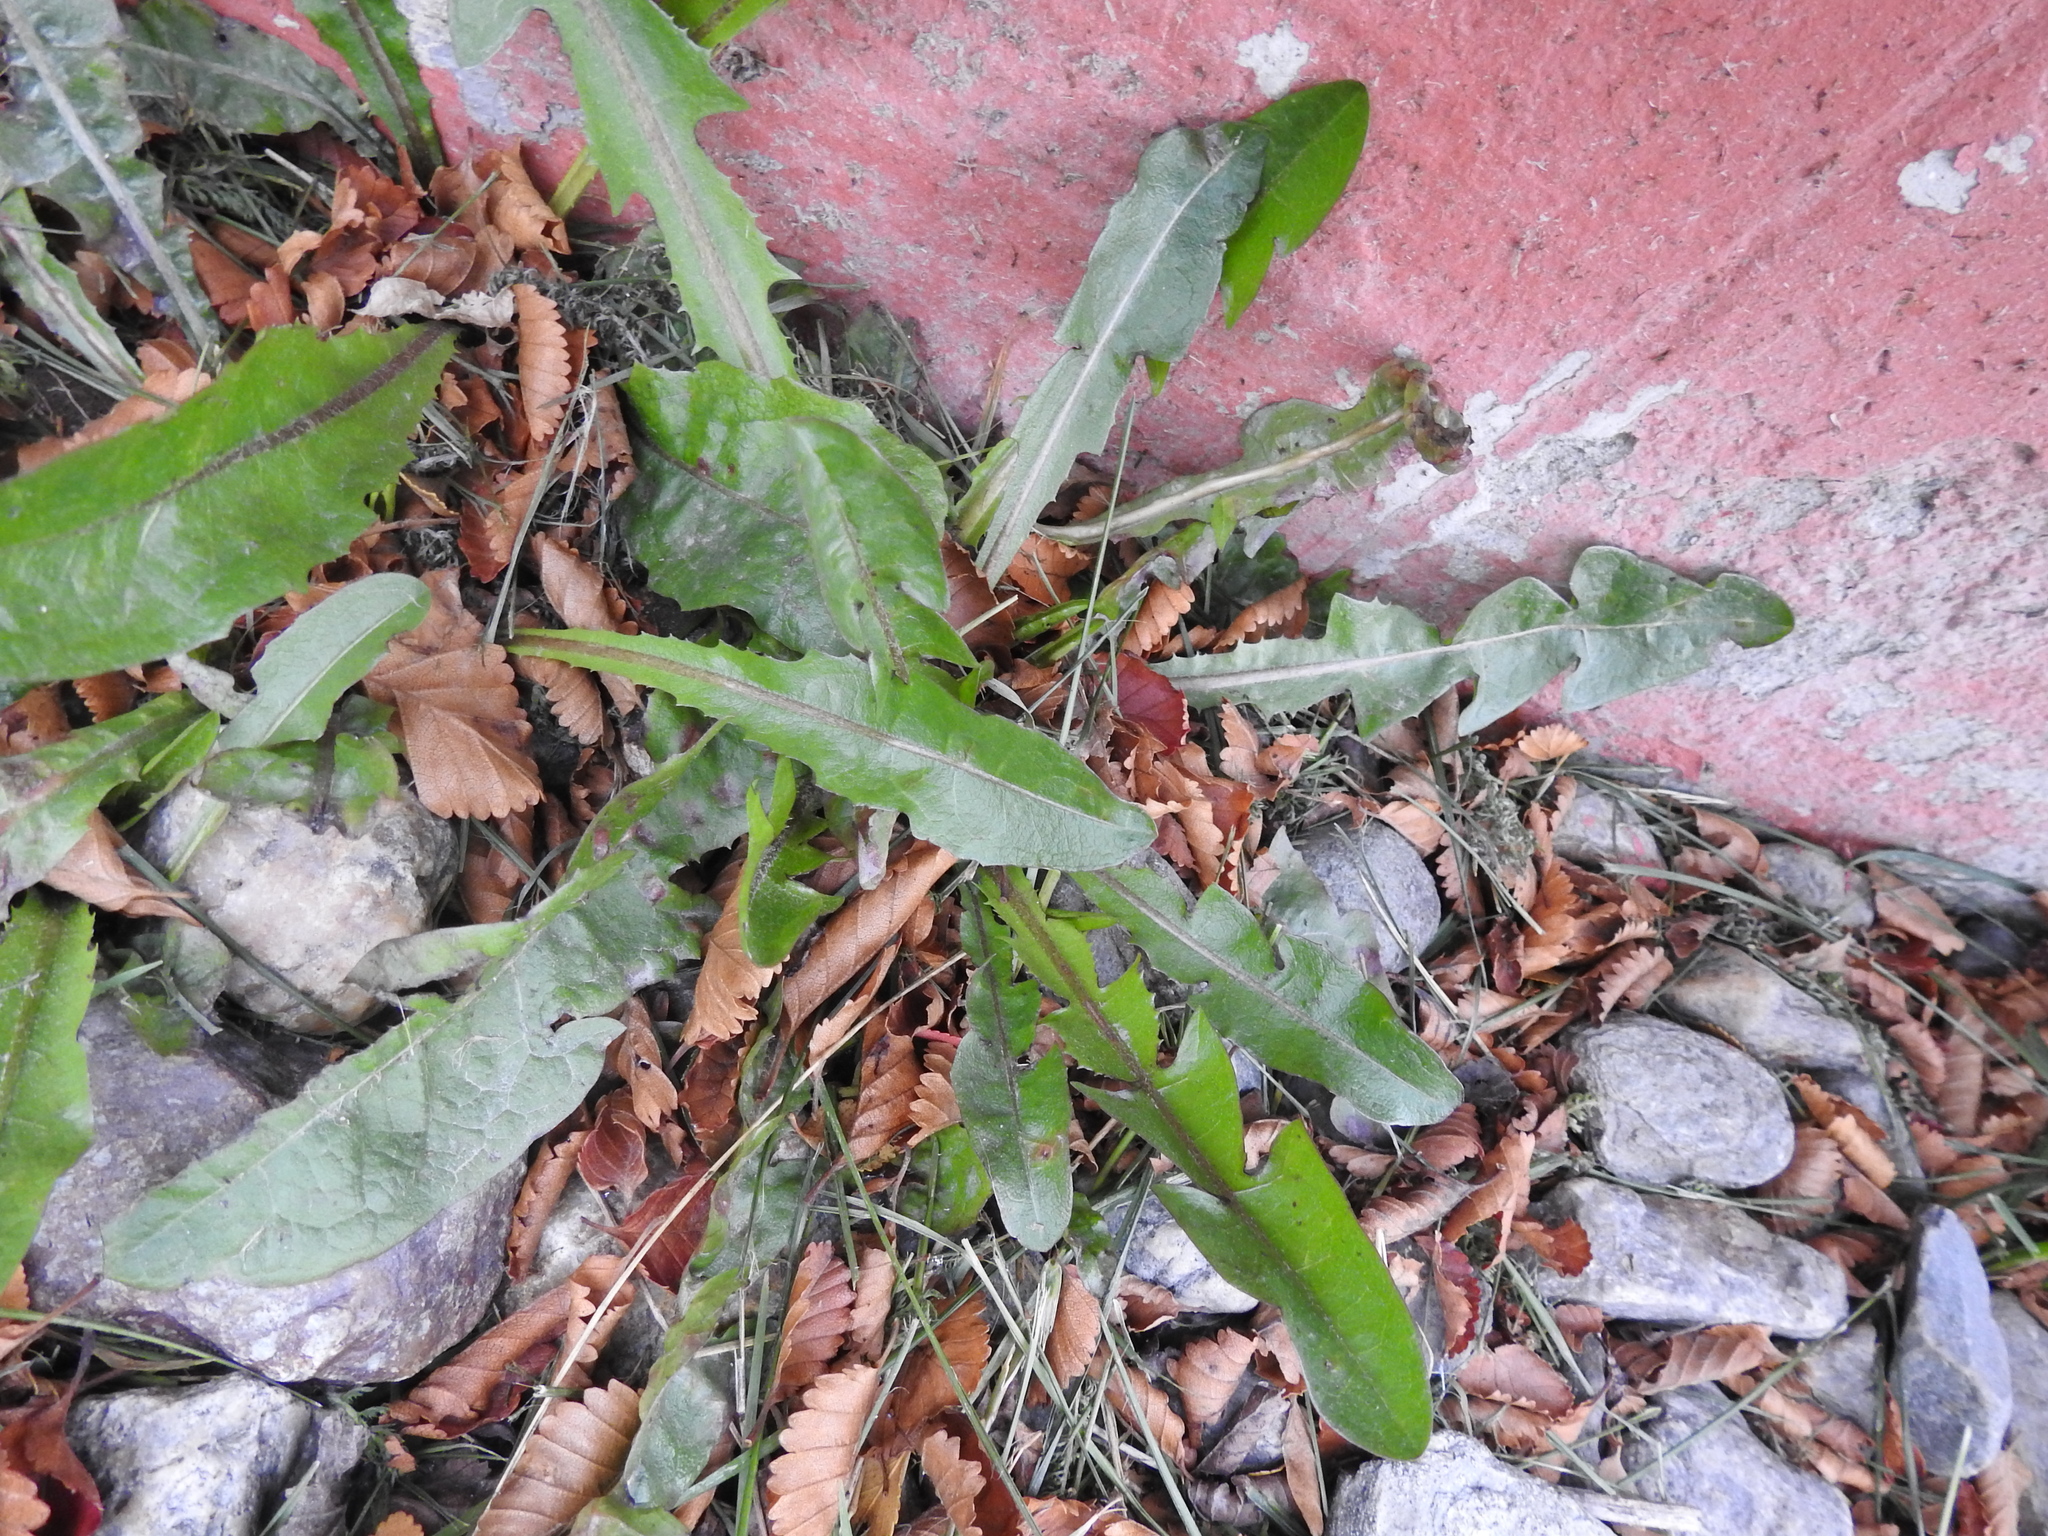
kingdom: Plantae
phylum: Tracheophyta
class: Magnoliopsida
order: Asterales
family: Asteraceae
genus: Taraxacum
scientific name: Taraxacum officinale
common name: Common dandelion
